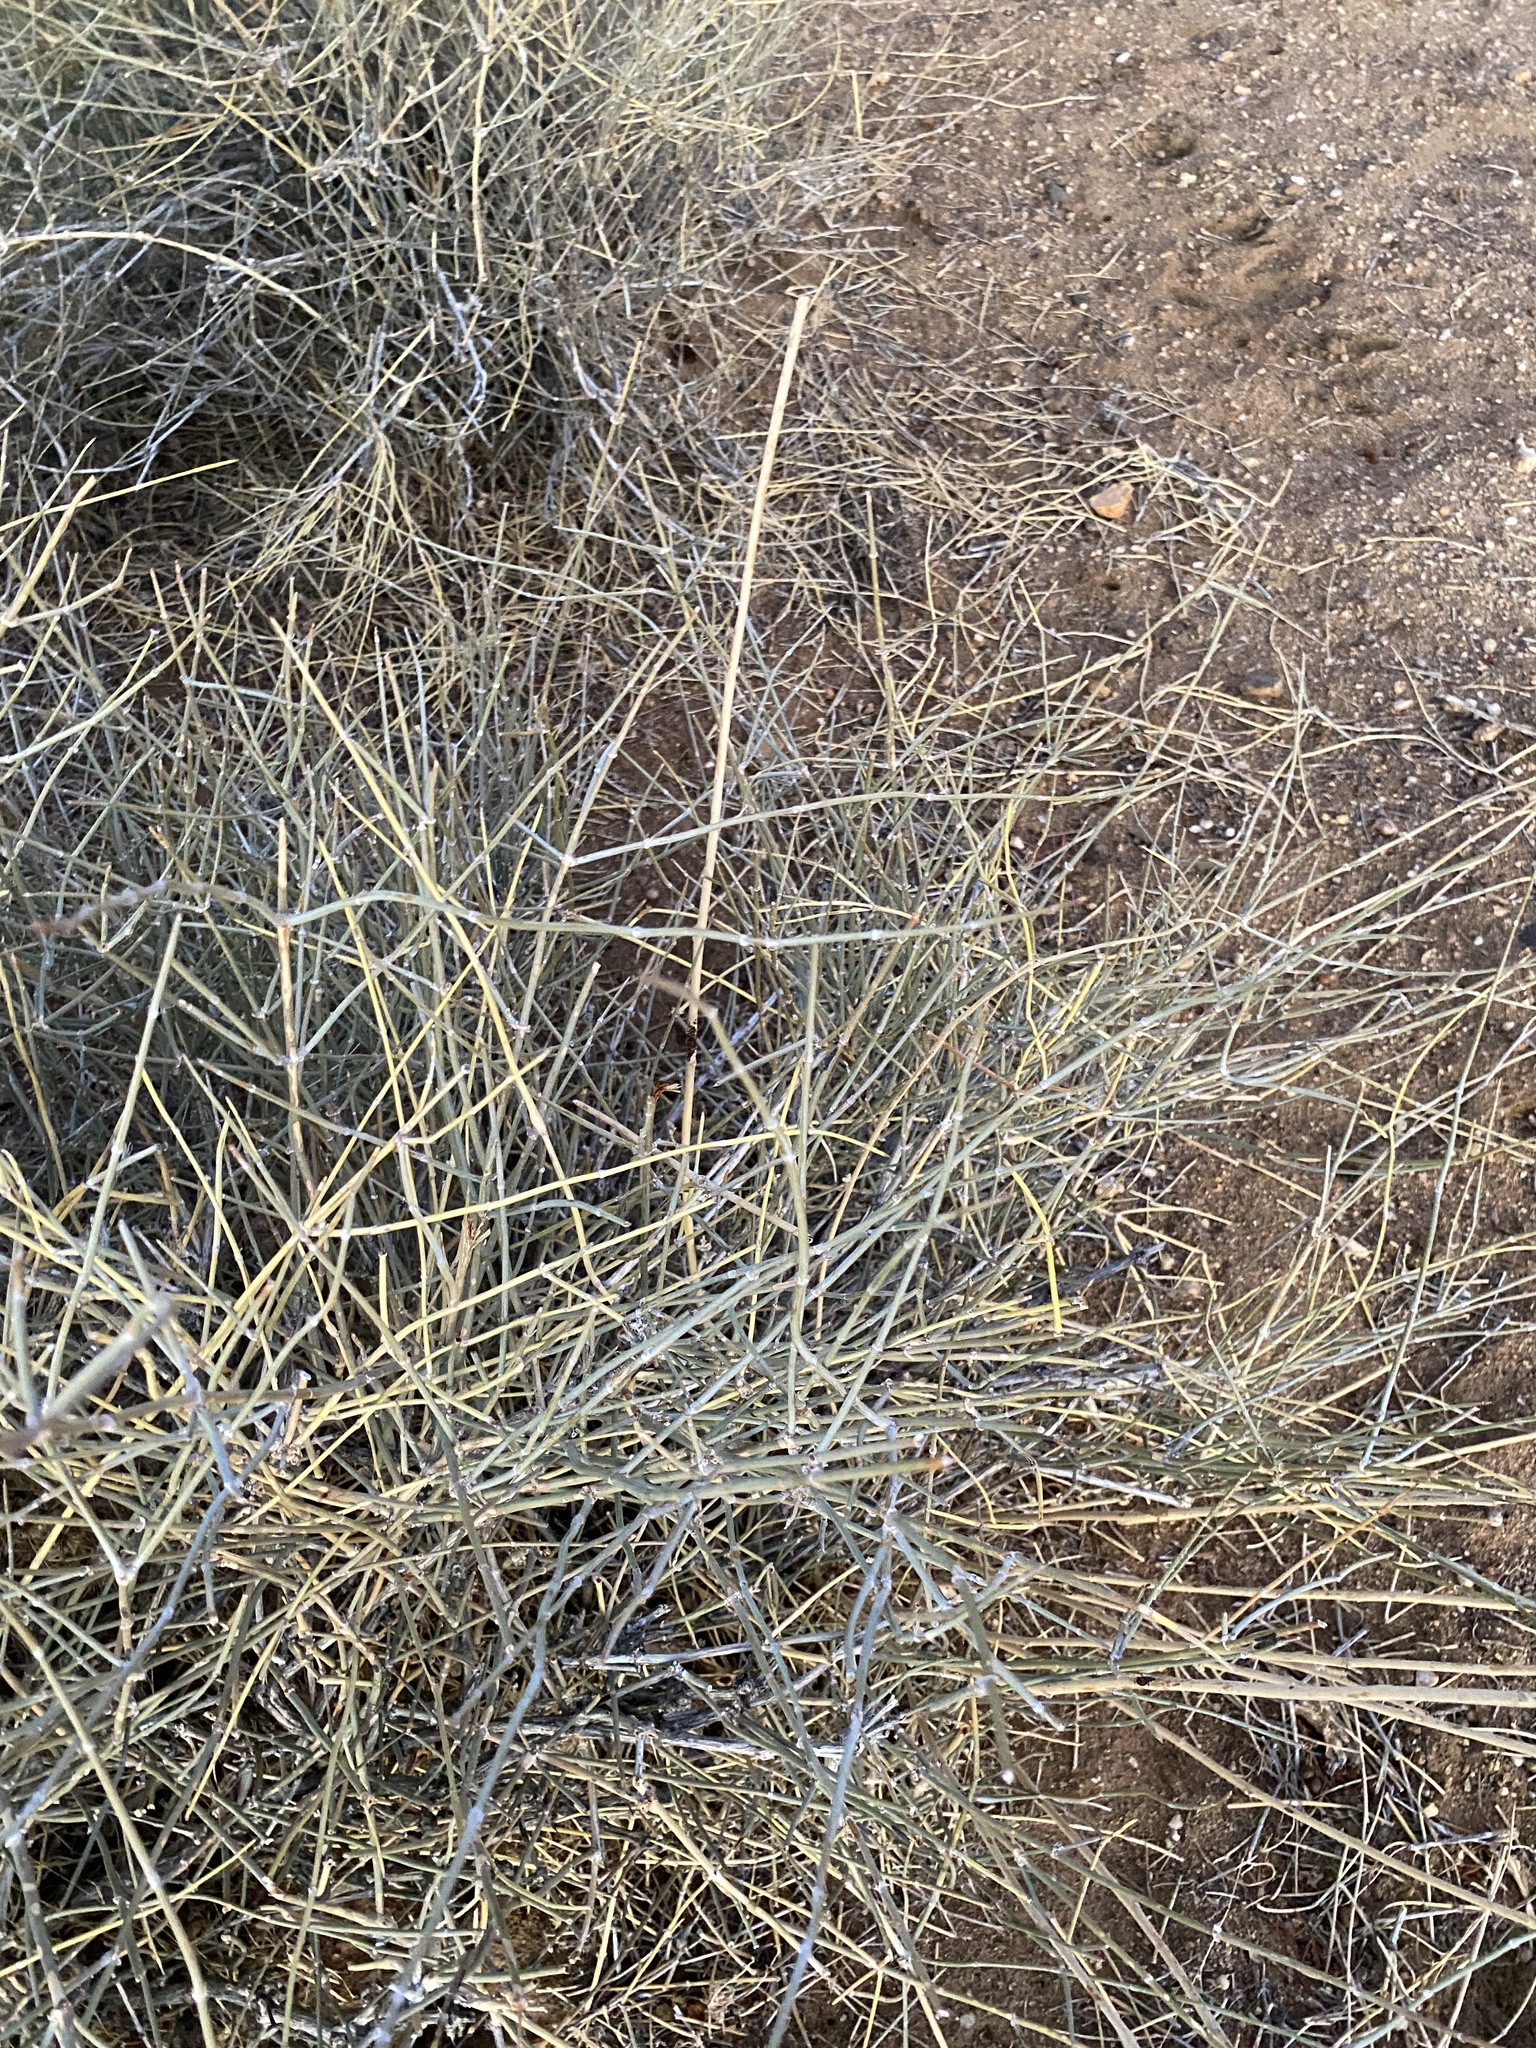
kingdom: Plantae
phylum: Tracheophyta
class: Gnetopsida
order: Ephedrales
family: Ephedraceae
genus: Ephedra
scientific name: Ephedra nevadensis
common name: Gray ephedra
